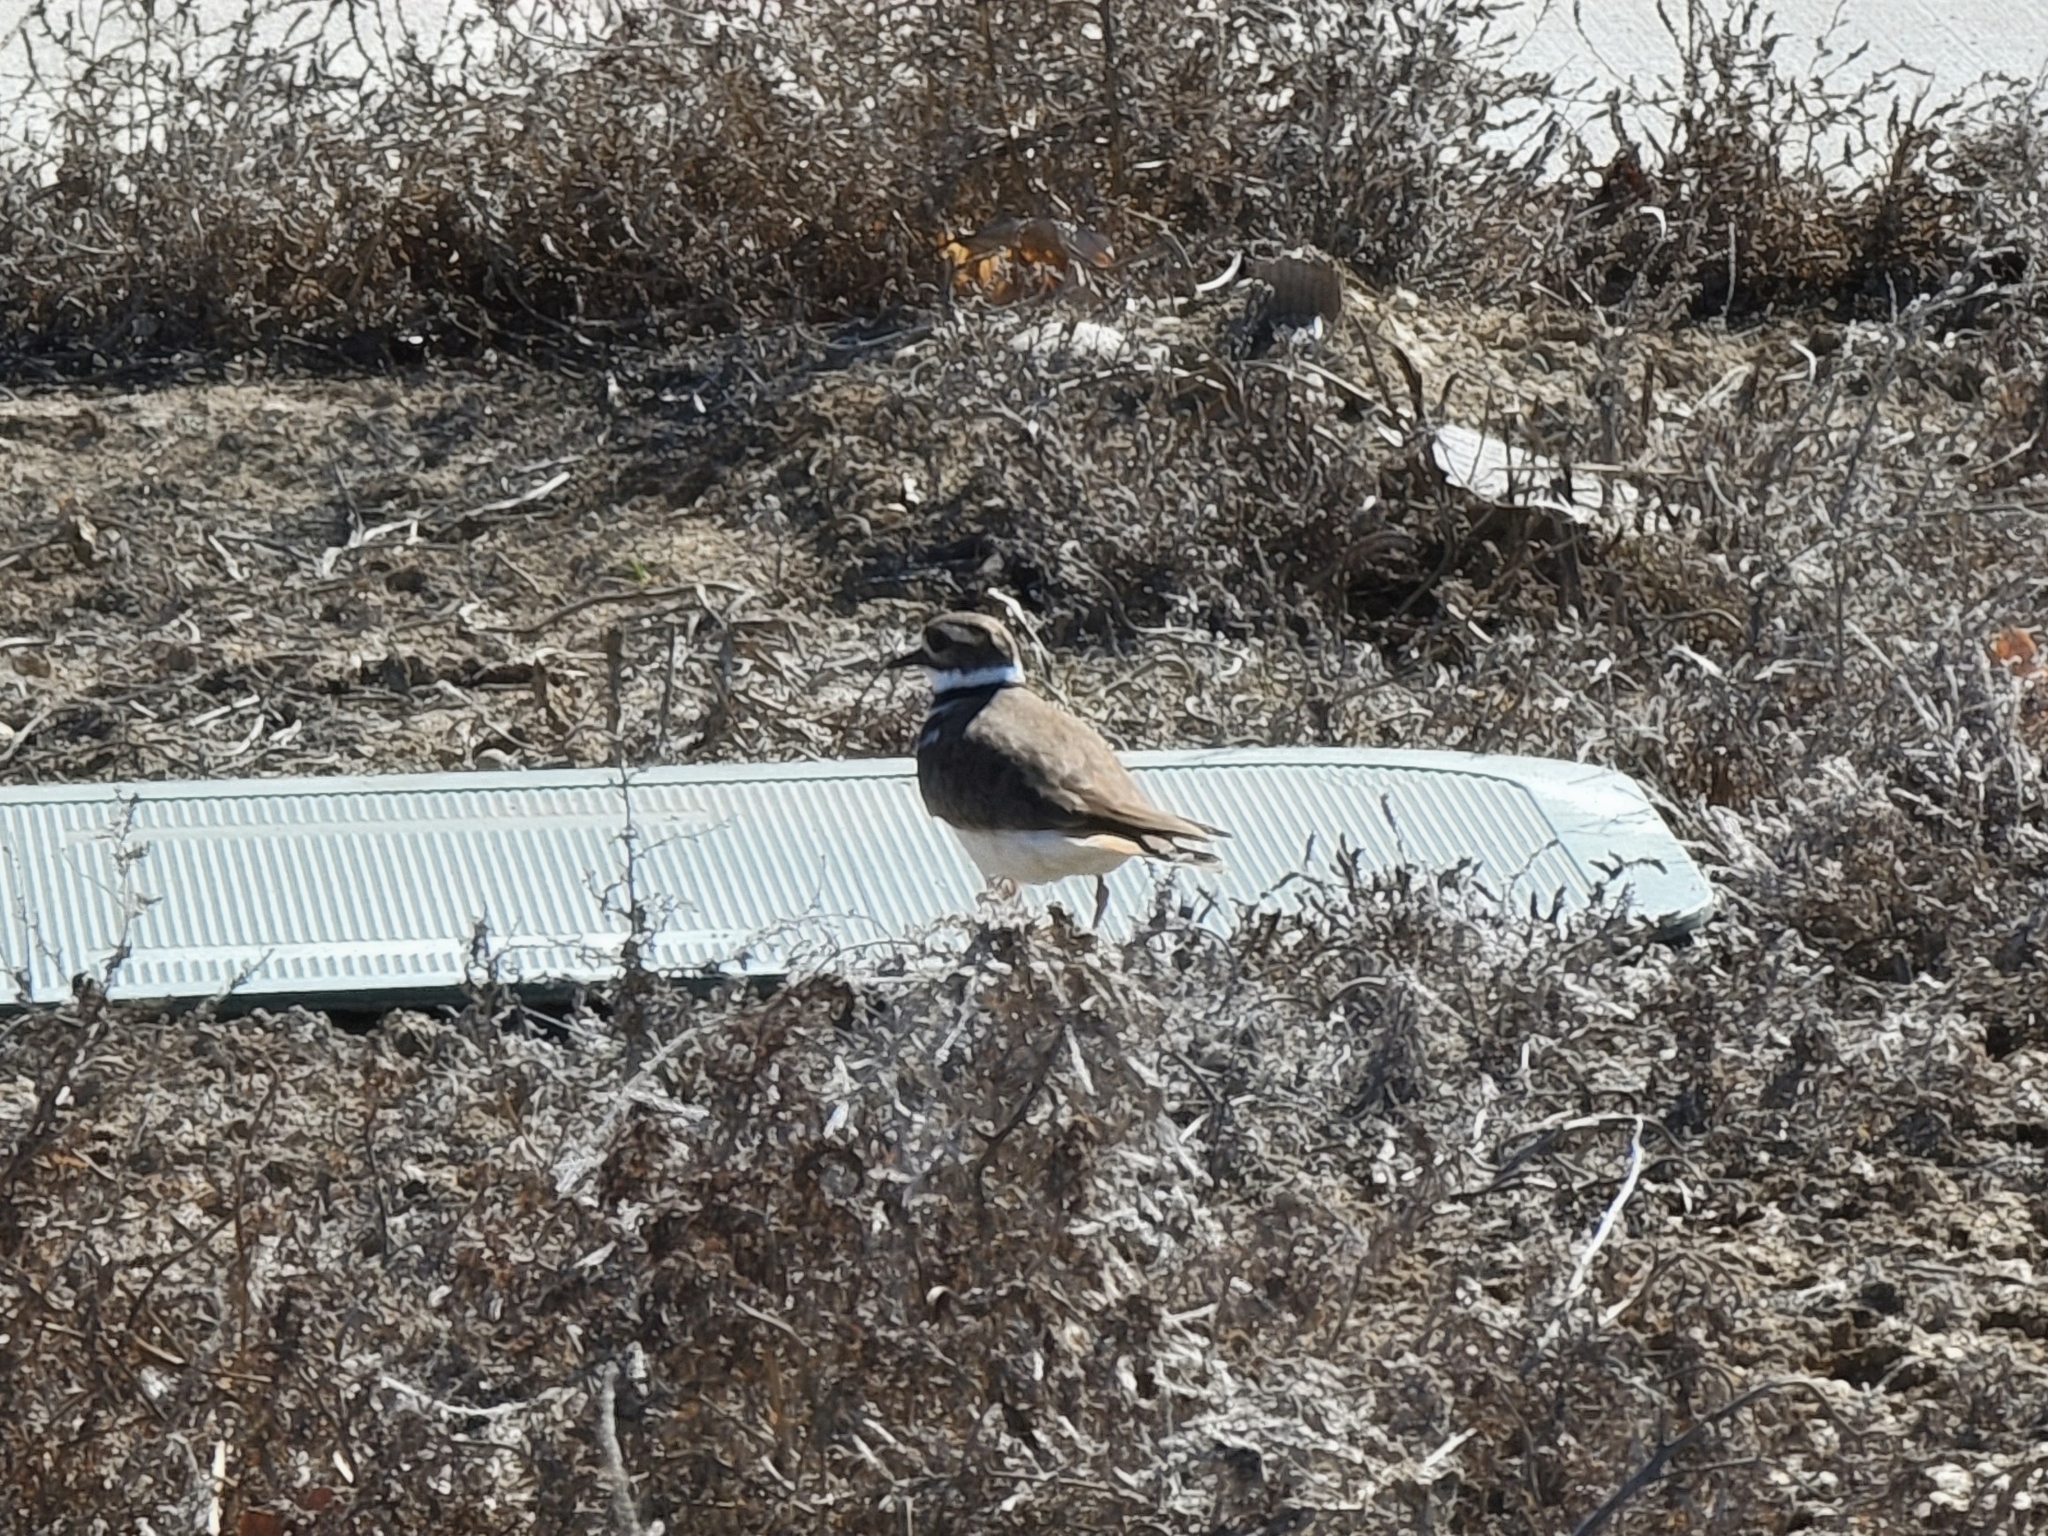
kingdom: Animalia
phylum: Chordata
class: Aves
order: Charadriiformes
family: Charadriidae
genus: Charadrius
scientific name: Charadrius vociferus
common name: Killdeer
